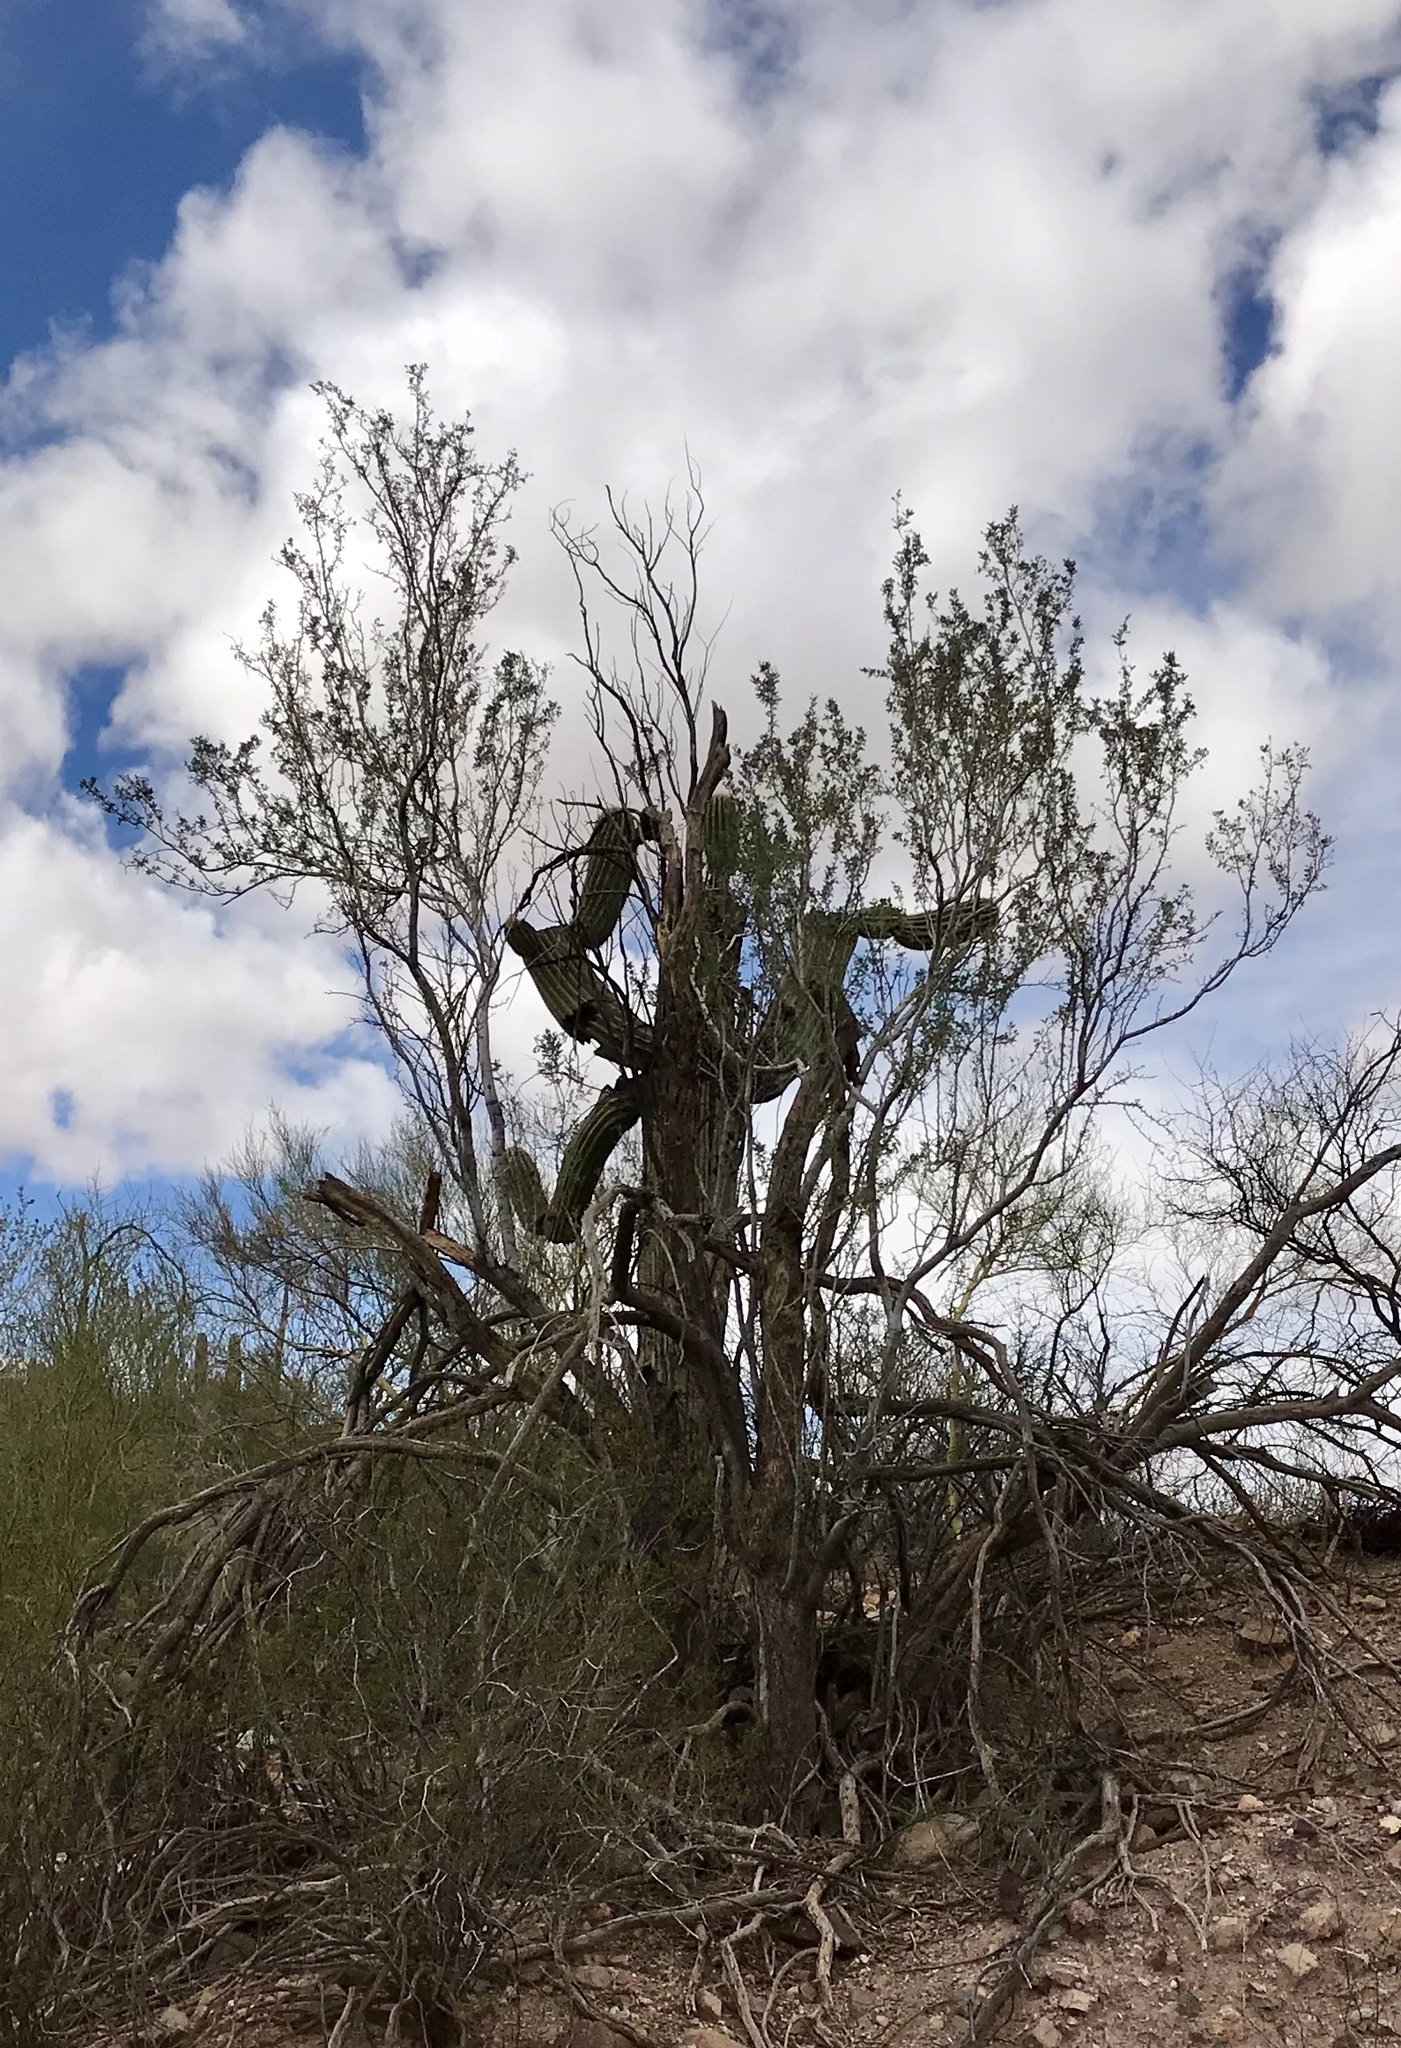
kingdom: Plantae
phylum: Tracheophyta
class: Magnoliopsida
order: Fabales
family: Fabaceae
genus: Olneya
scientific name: Olneya tesota
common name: Desert ironwood
